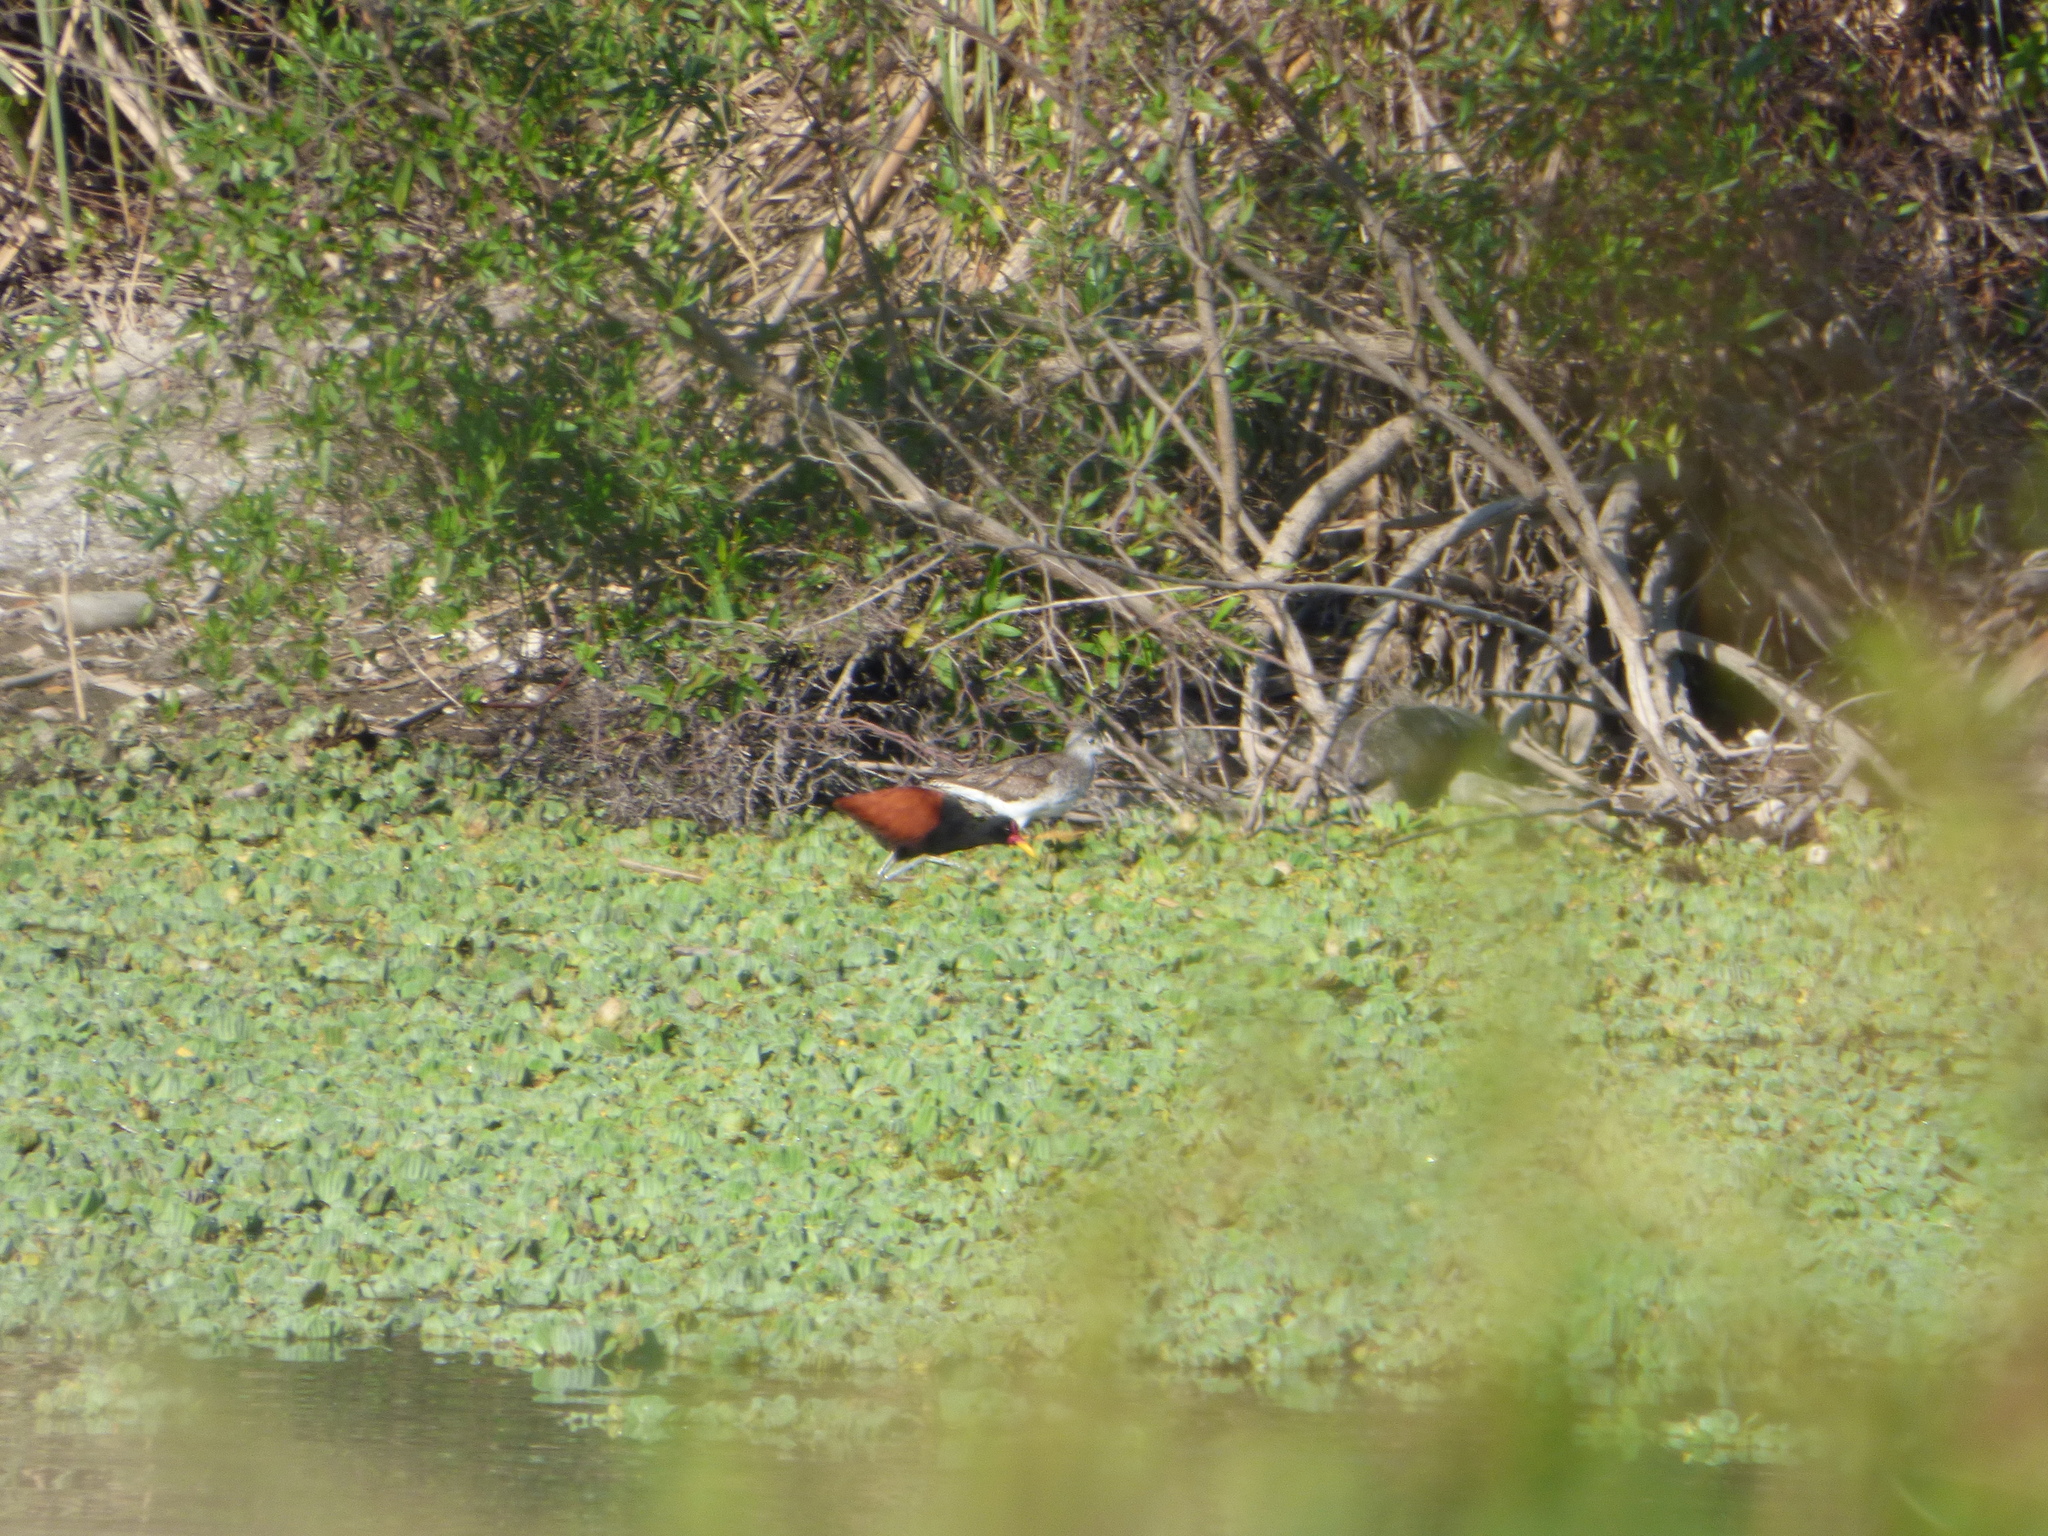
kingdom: Animalia
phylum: Chordata
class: Aves
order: Charadriiformes
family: Jacanidae
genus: Jacana
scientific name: Jacana jacana
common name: Wattled jacana
